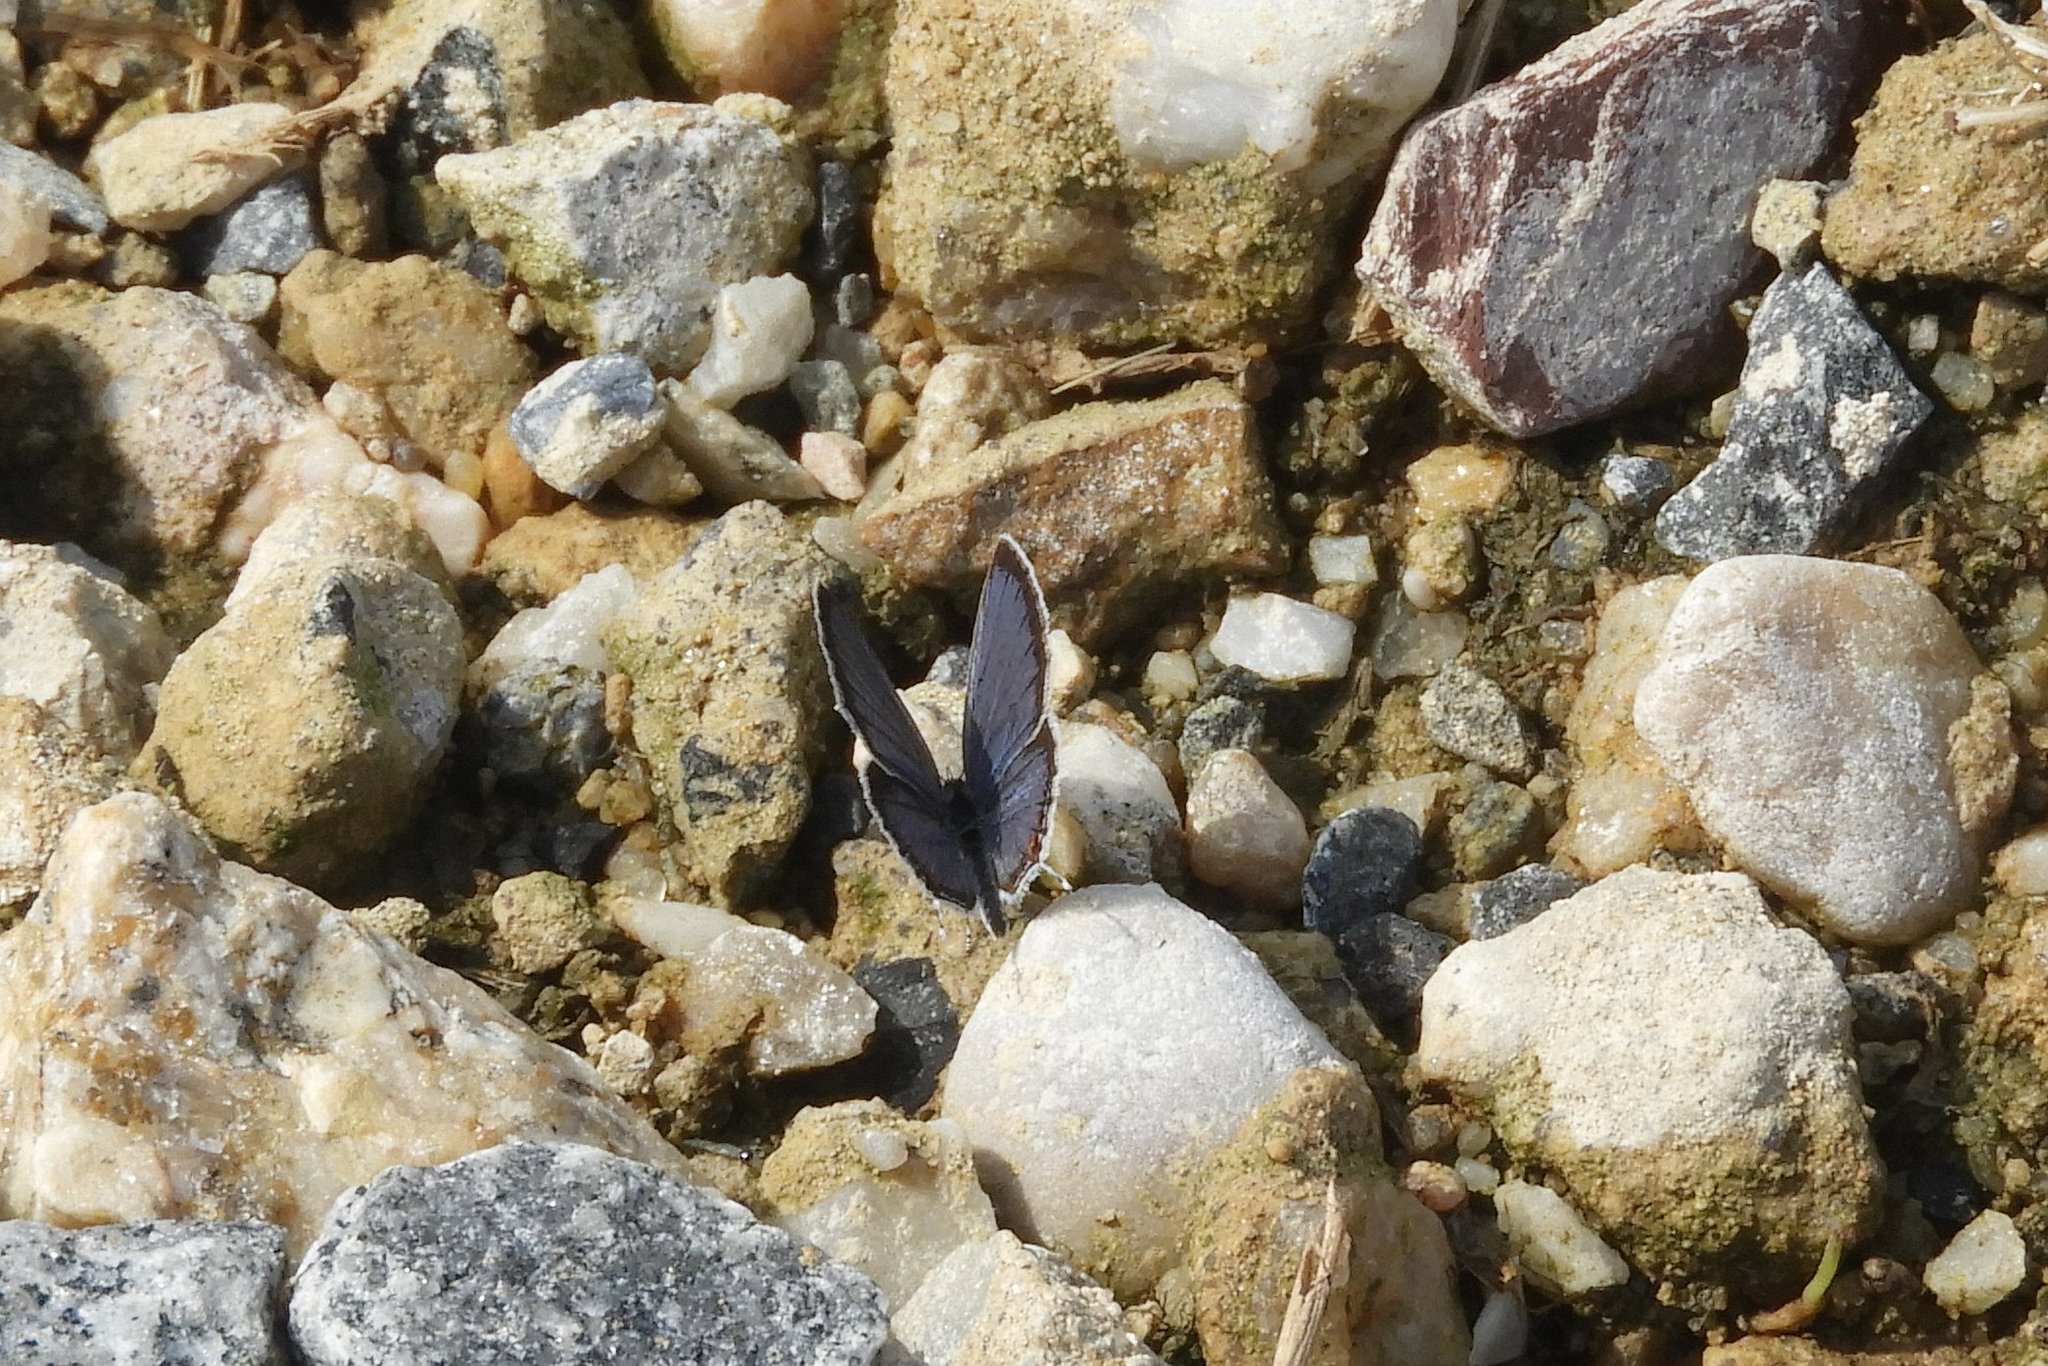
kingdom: Animalia
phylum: Arthropoda
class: Insecta
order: Lepidoptera
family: Lycaenidae
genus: Elkalyce
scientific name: Elkalyce comyntas
